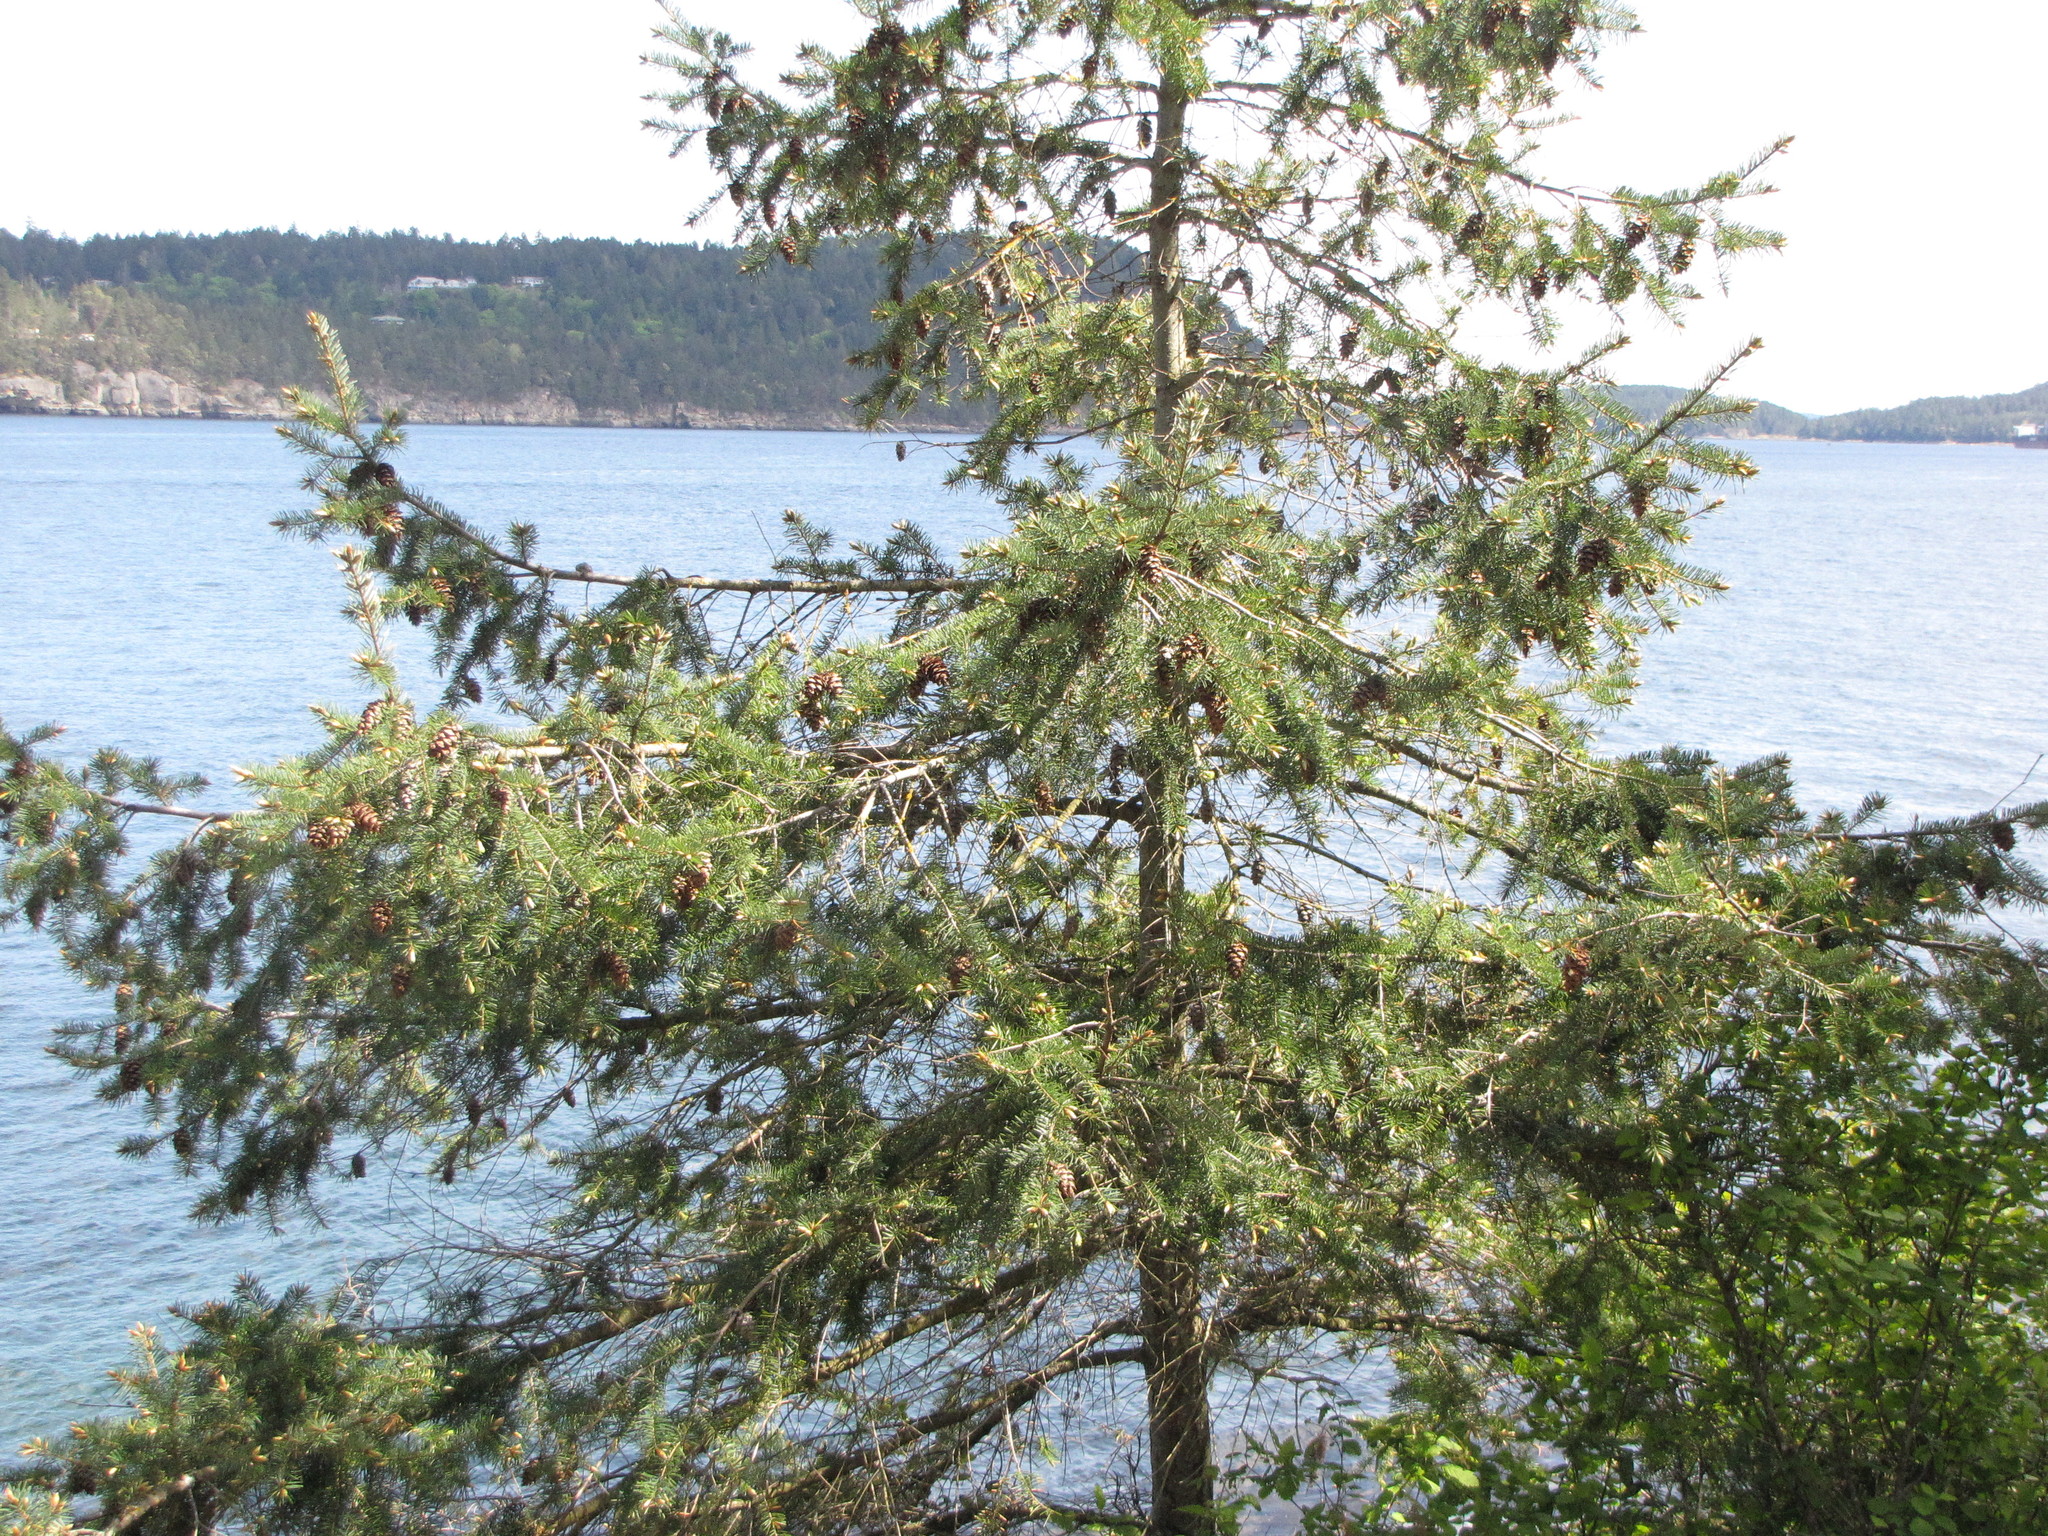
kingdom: Plantae
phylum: Tracheophyta
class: Pinopsida
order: Pinales
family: Pinaceae
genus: Pseudotsuga
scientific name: Pseudotsuga menziesii
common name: Douglas fir
